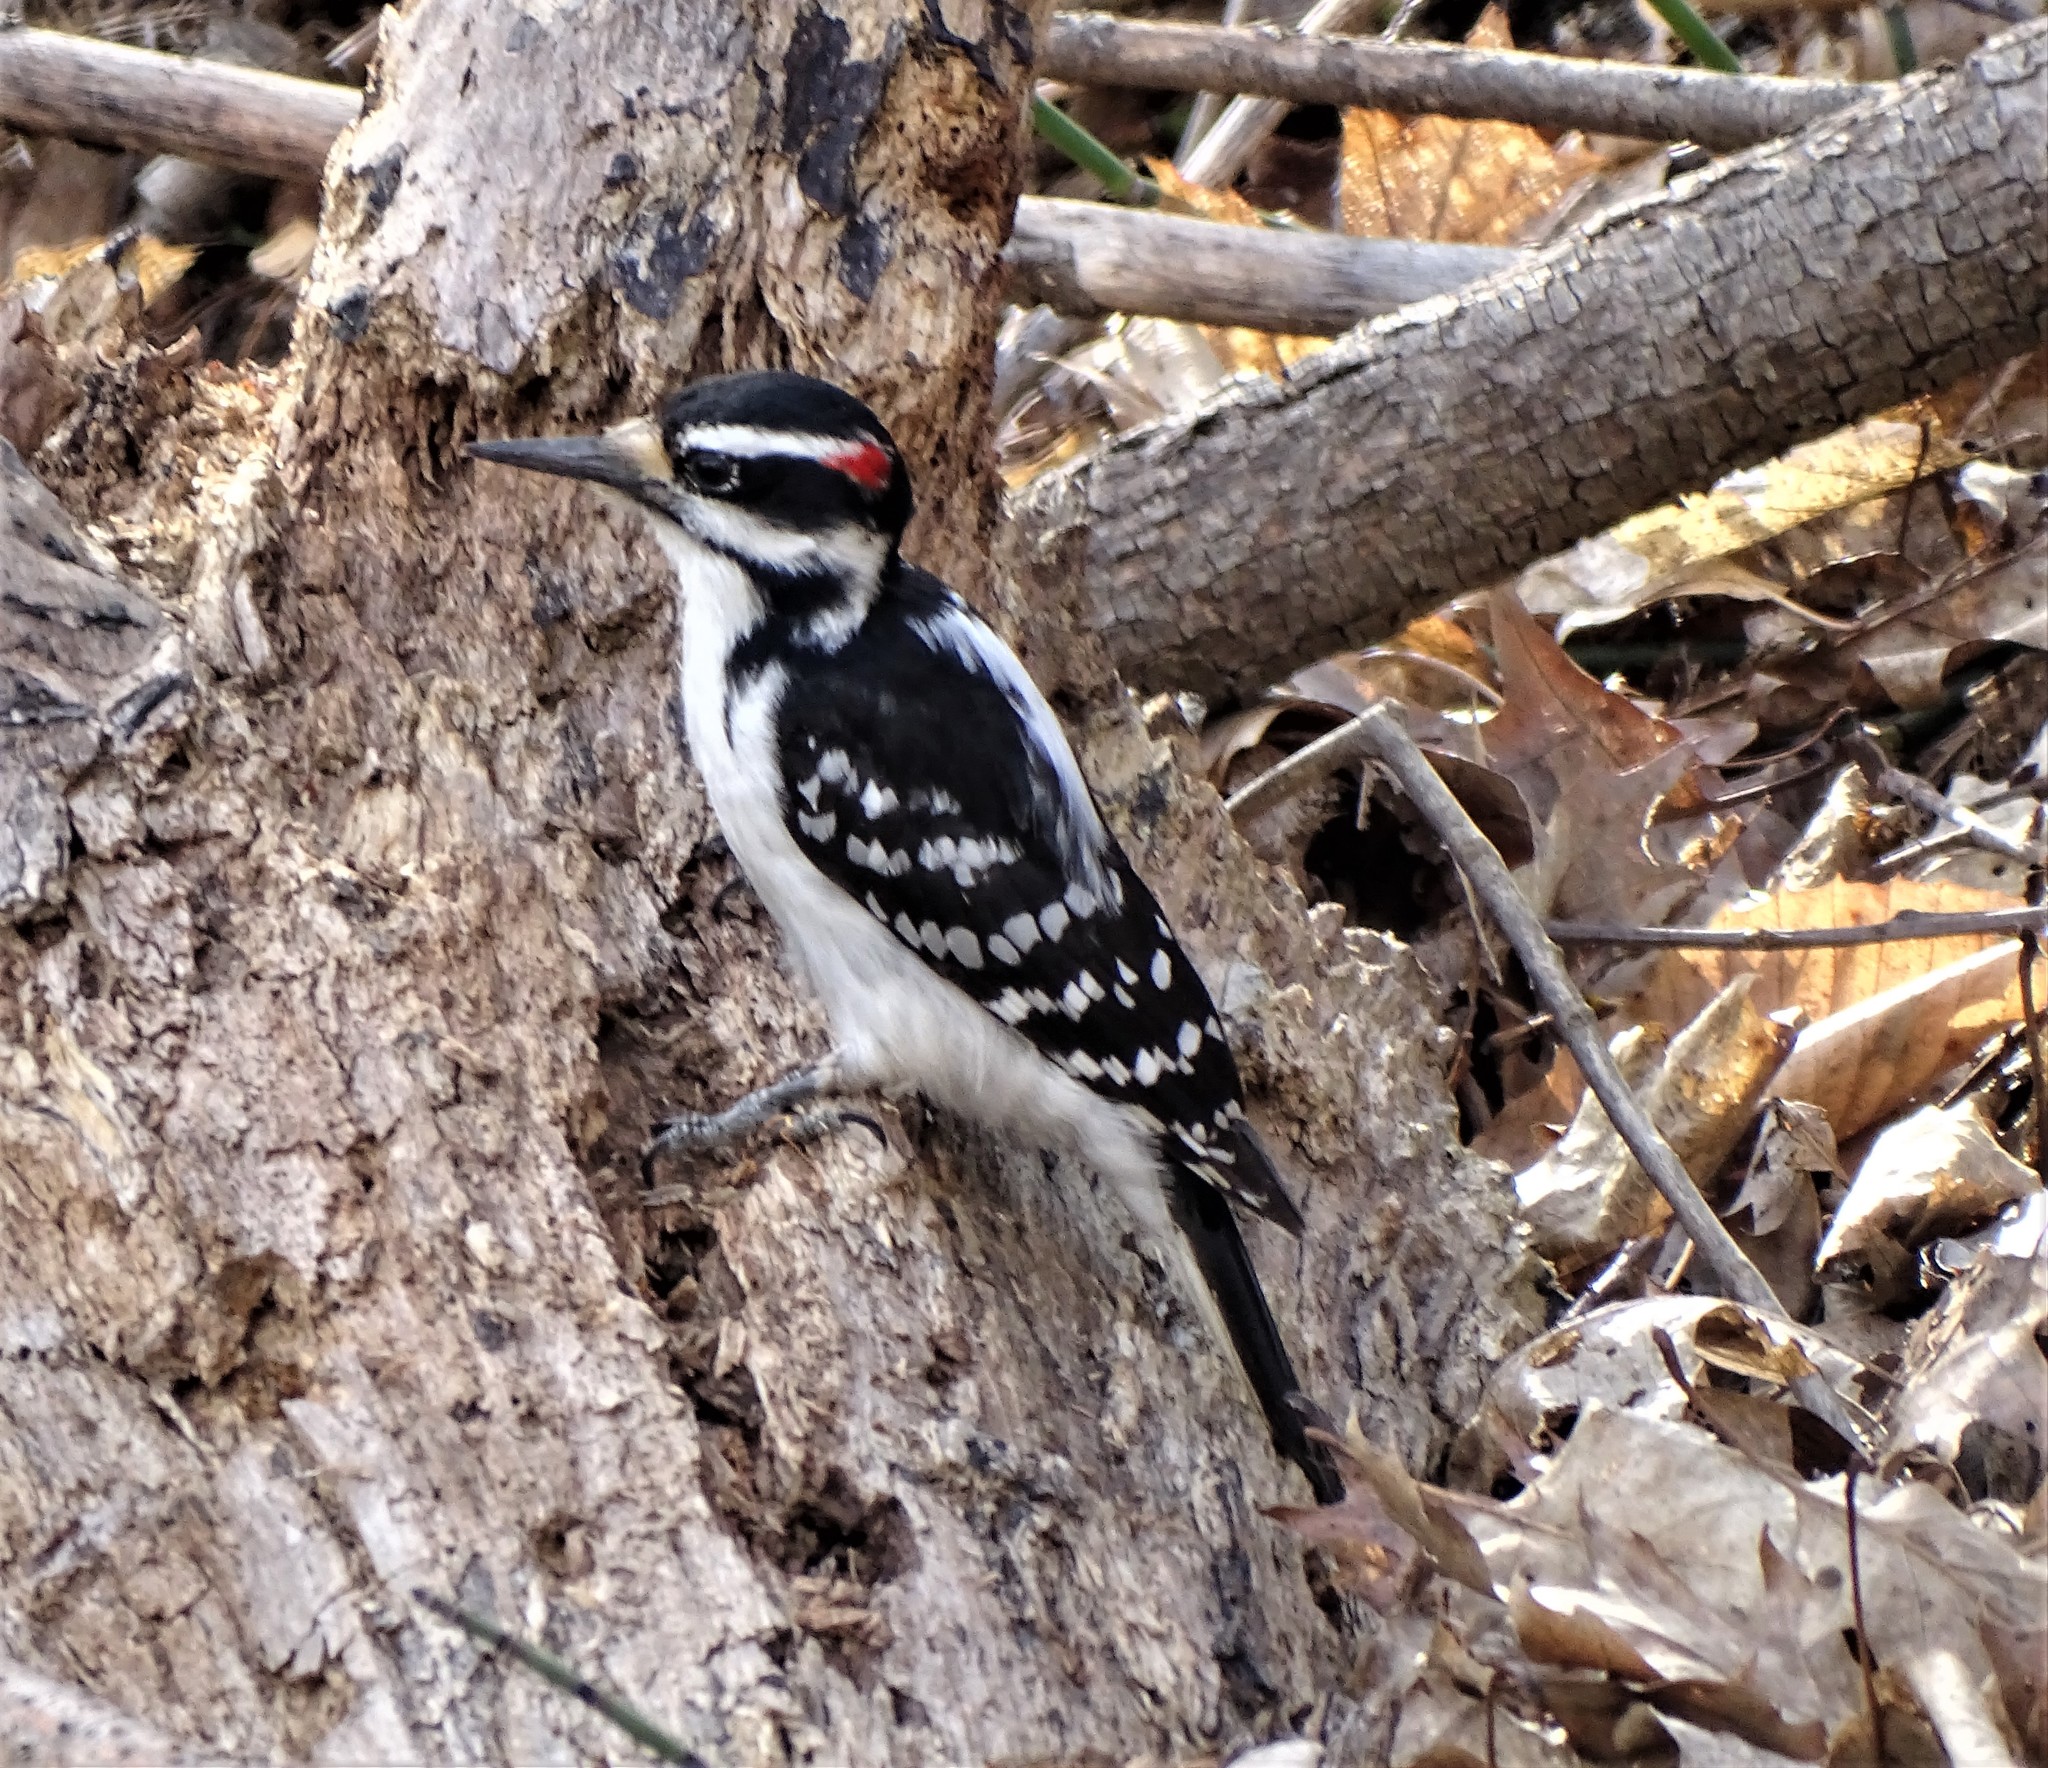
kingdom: Animalia
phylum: Chordata
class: Aves
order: Piciformes
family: Picidae
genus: Leuconotopicus
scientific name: Leuconotopicus villosus
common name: Hairy woodpecker
